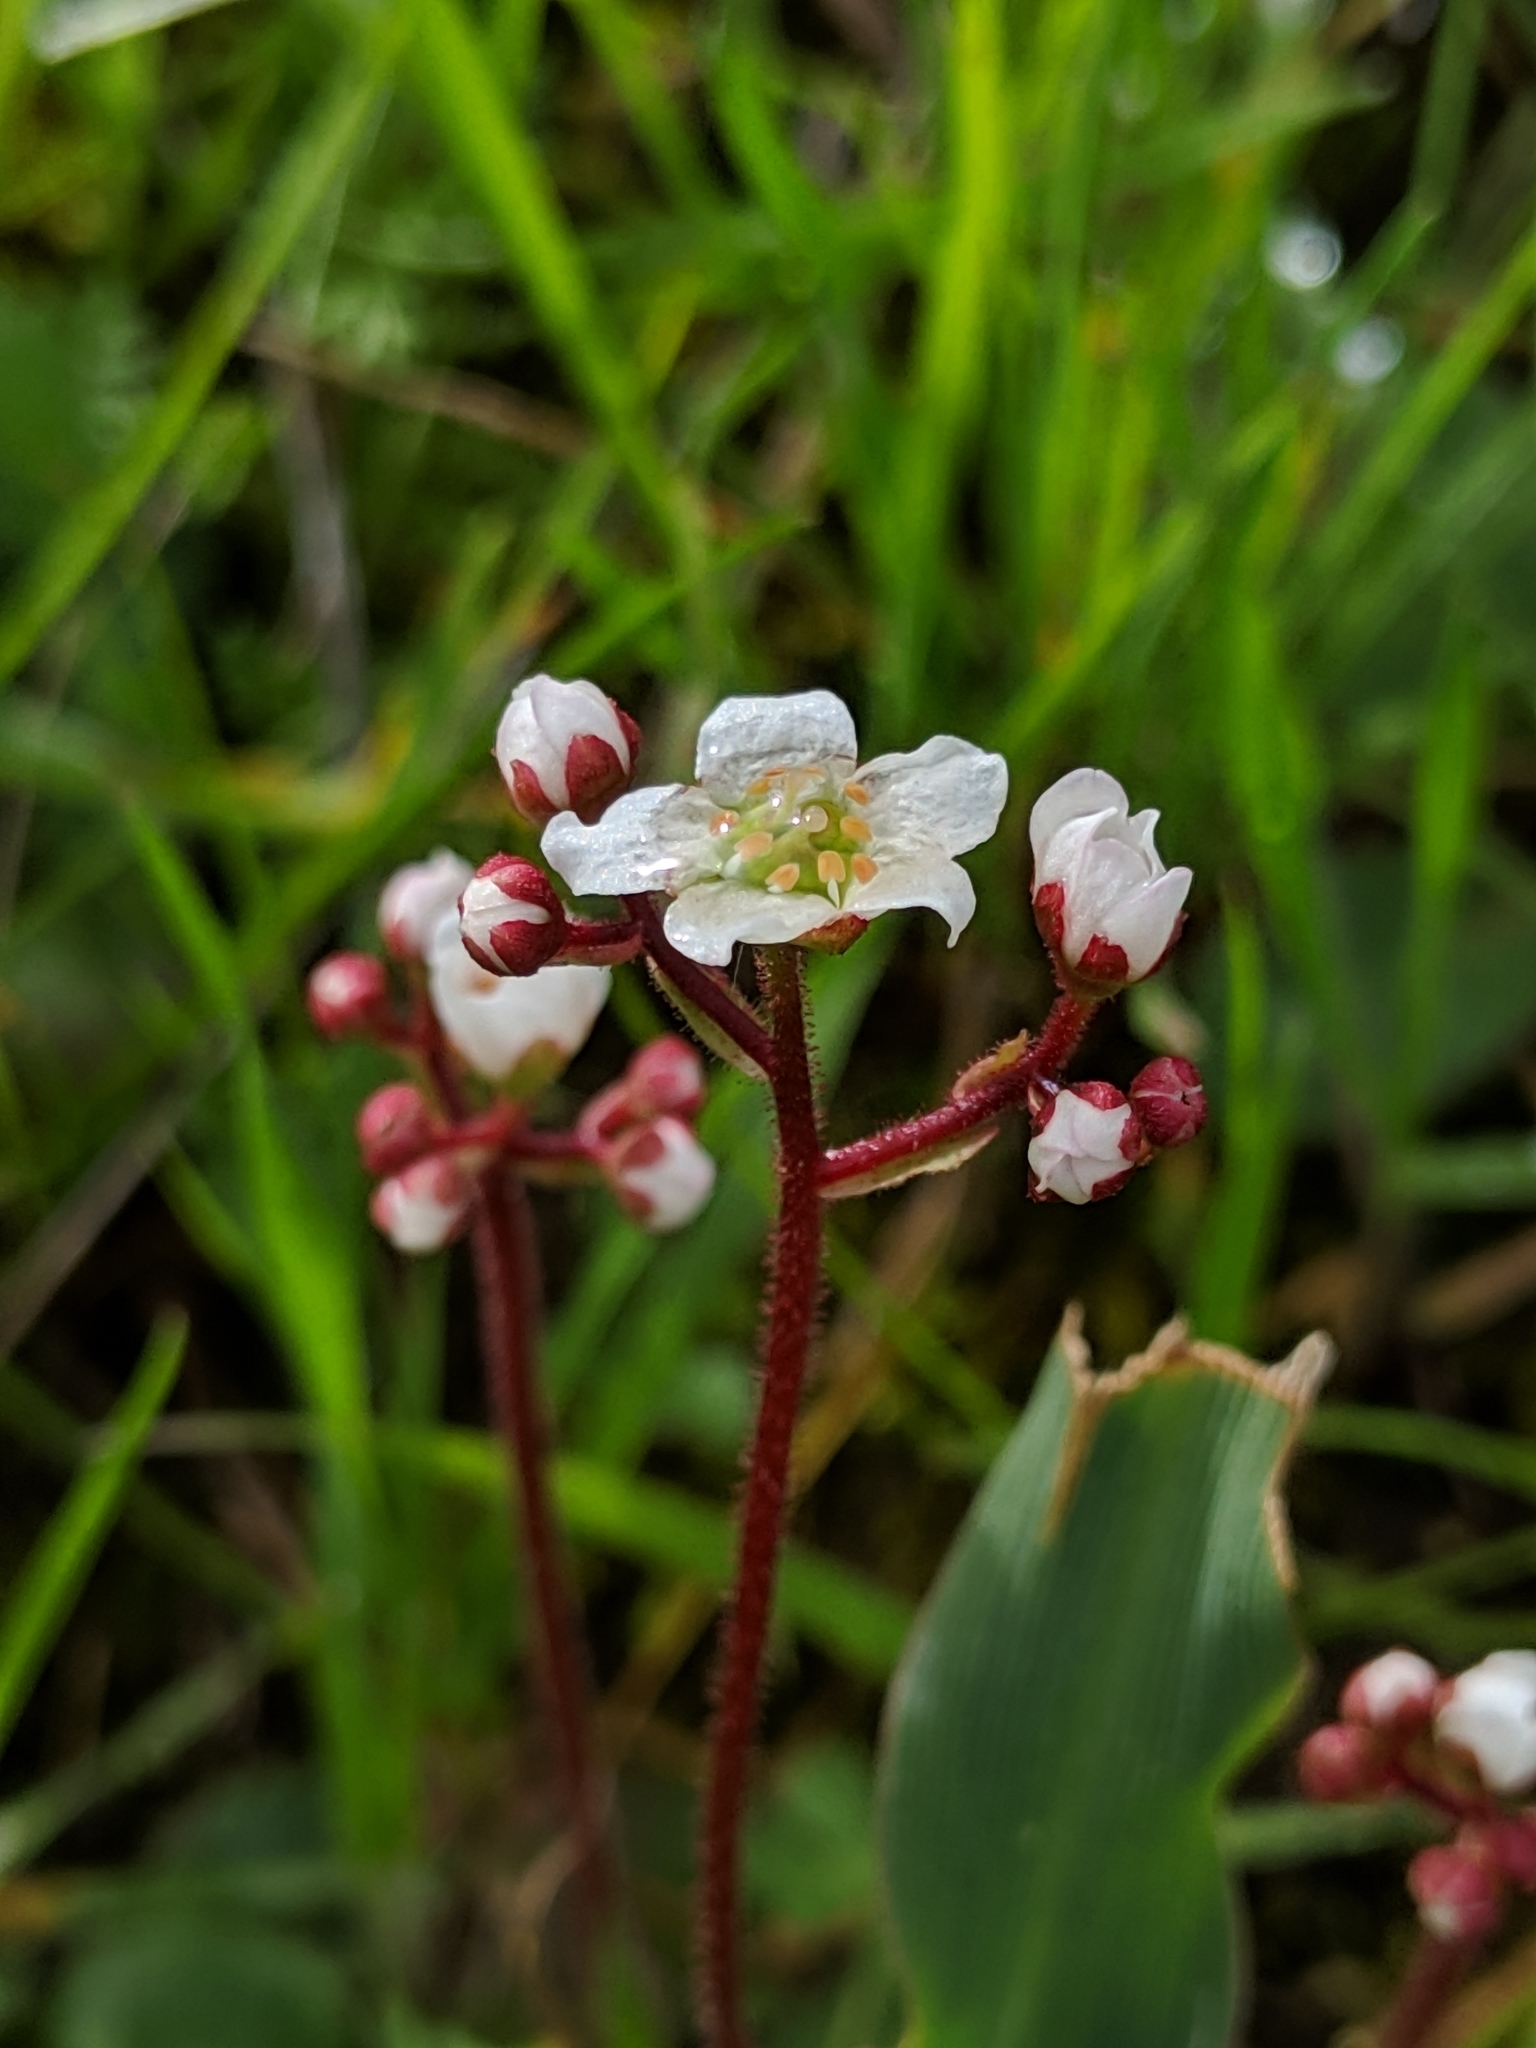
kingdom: Plantae
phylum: Tracheophyta
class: Magnoliopsida
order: Saxifragales
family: Saxifragaceae
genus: Micranthes
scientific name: Micranthes californica
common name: California saxifrage
